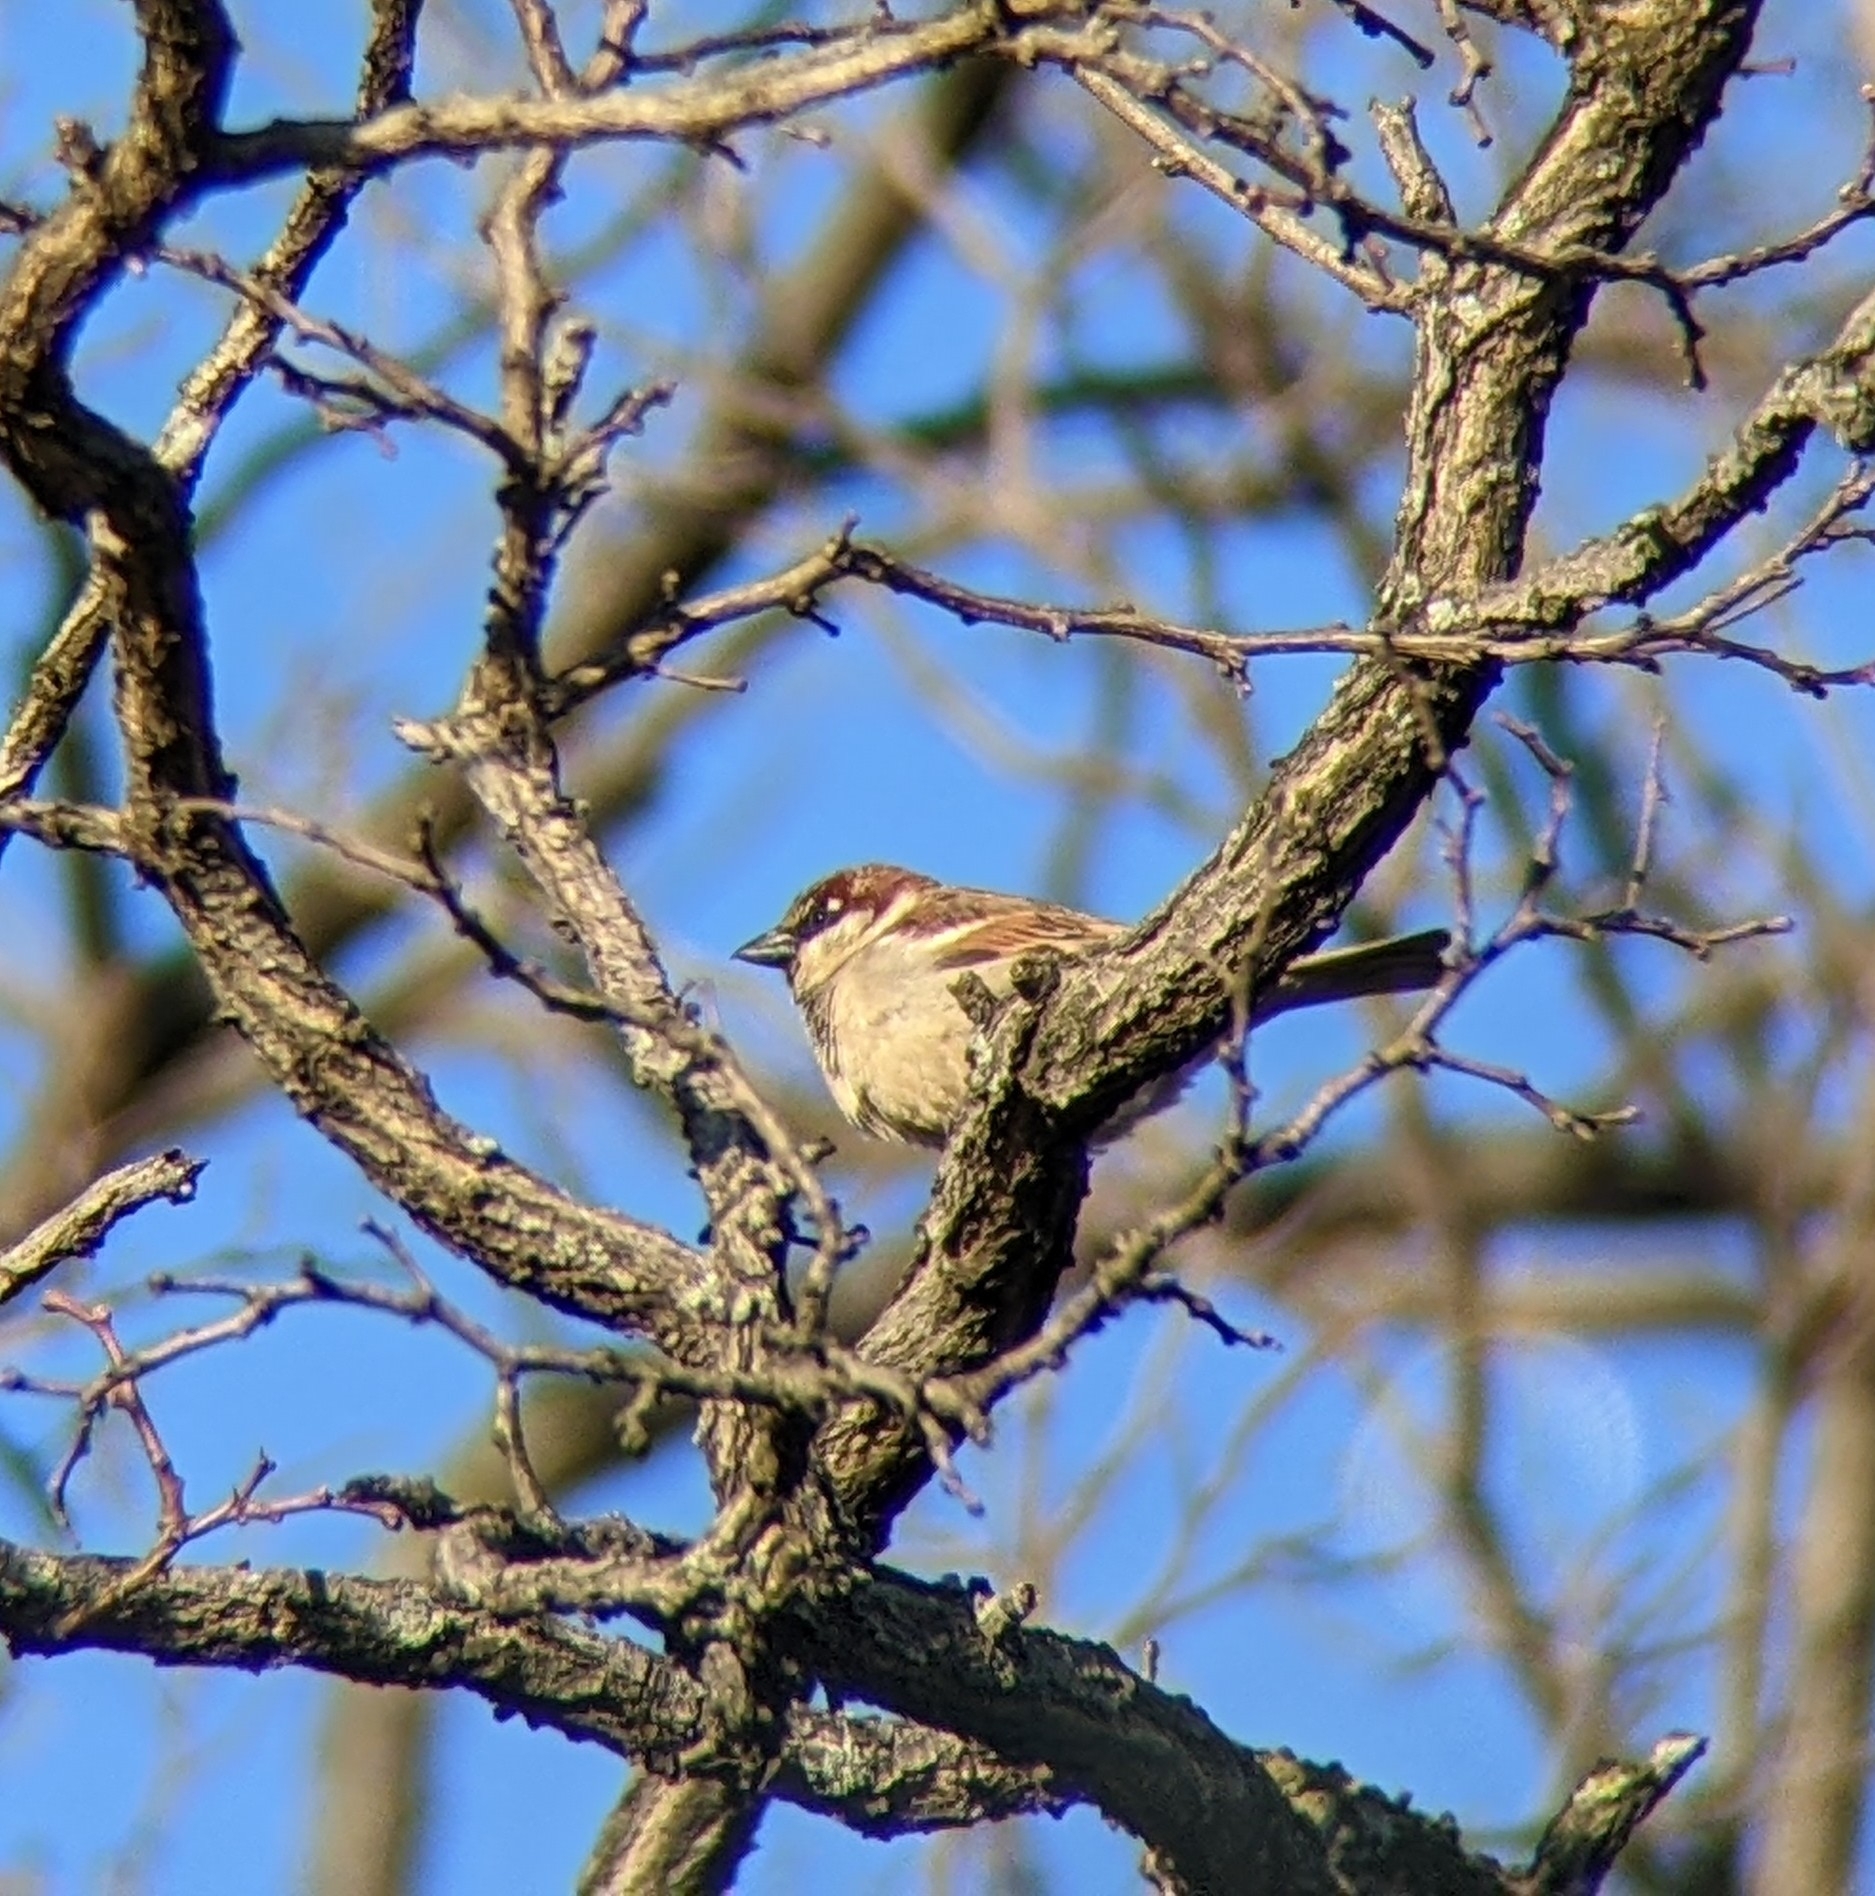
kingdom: Animalia
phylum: Chordata
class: Aves
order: Passeriformes
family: Passeridae
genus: Passer
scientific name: Passer domesticus
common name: House sparrow
